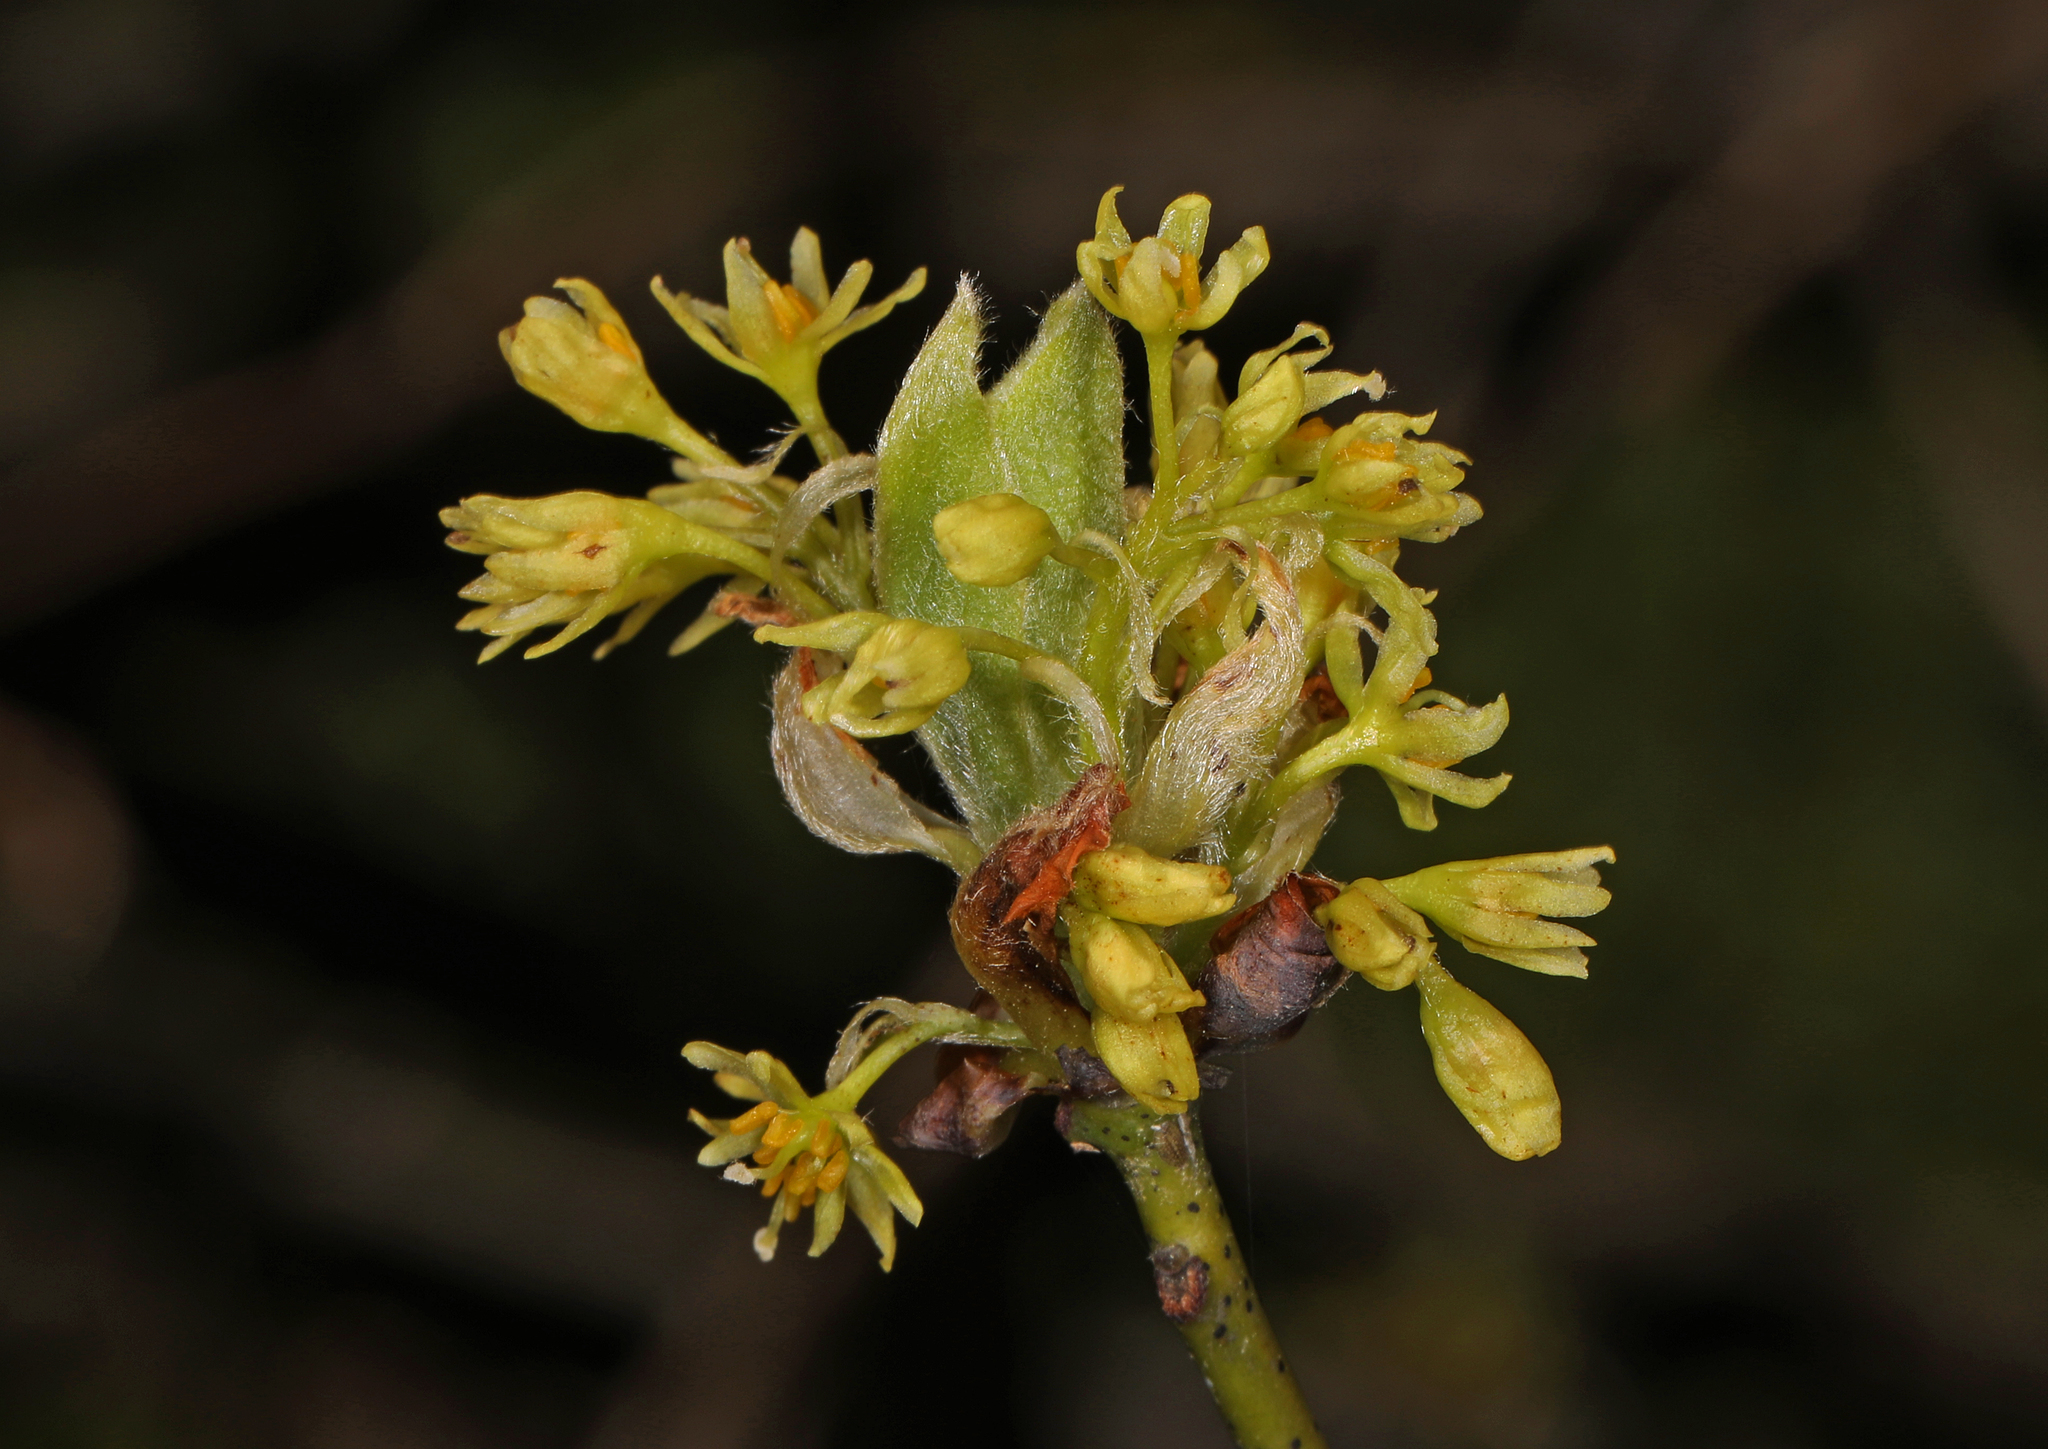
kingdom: Plantae
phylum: Tracheophyta
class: Magnoliopsida
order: Laurales
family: Lauraceae
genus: Sassafras
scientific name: Sassafras albidum
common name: Sassafras
